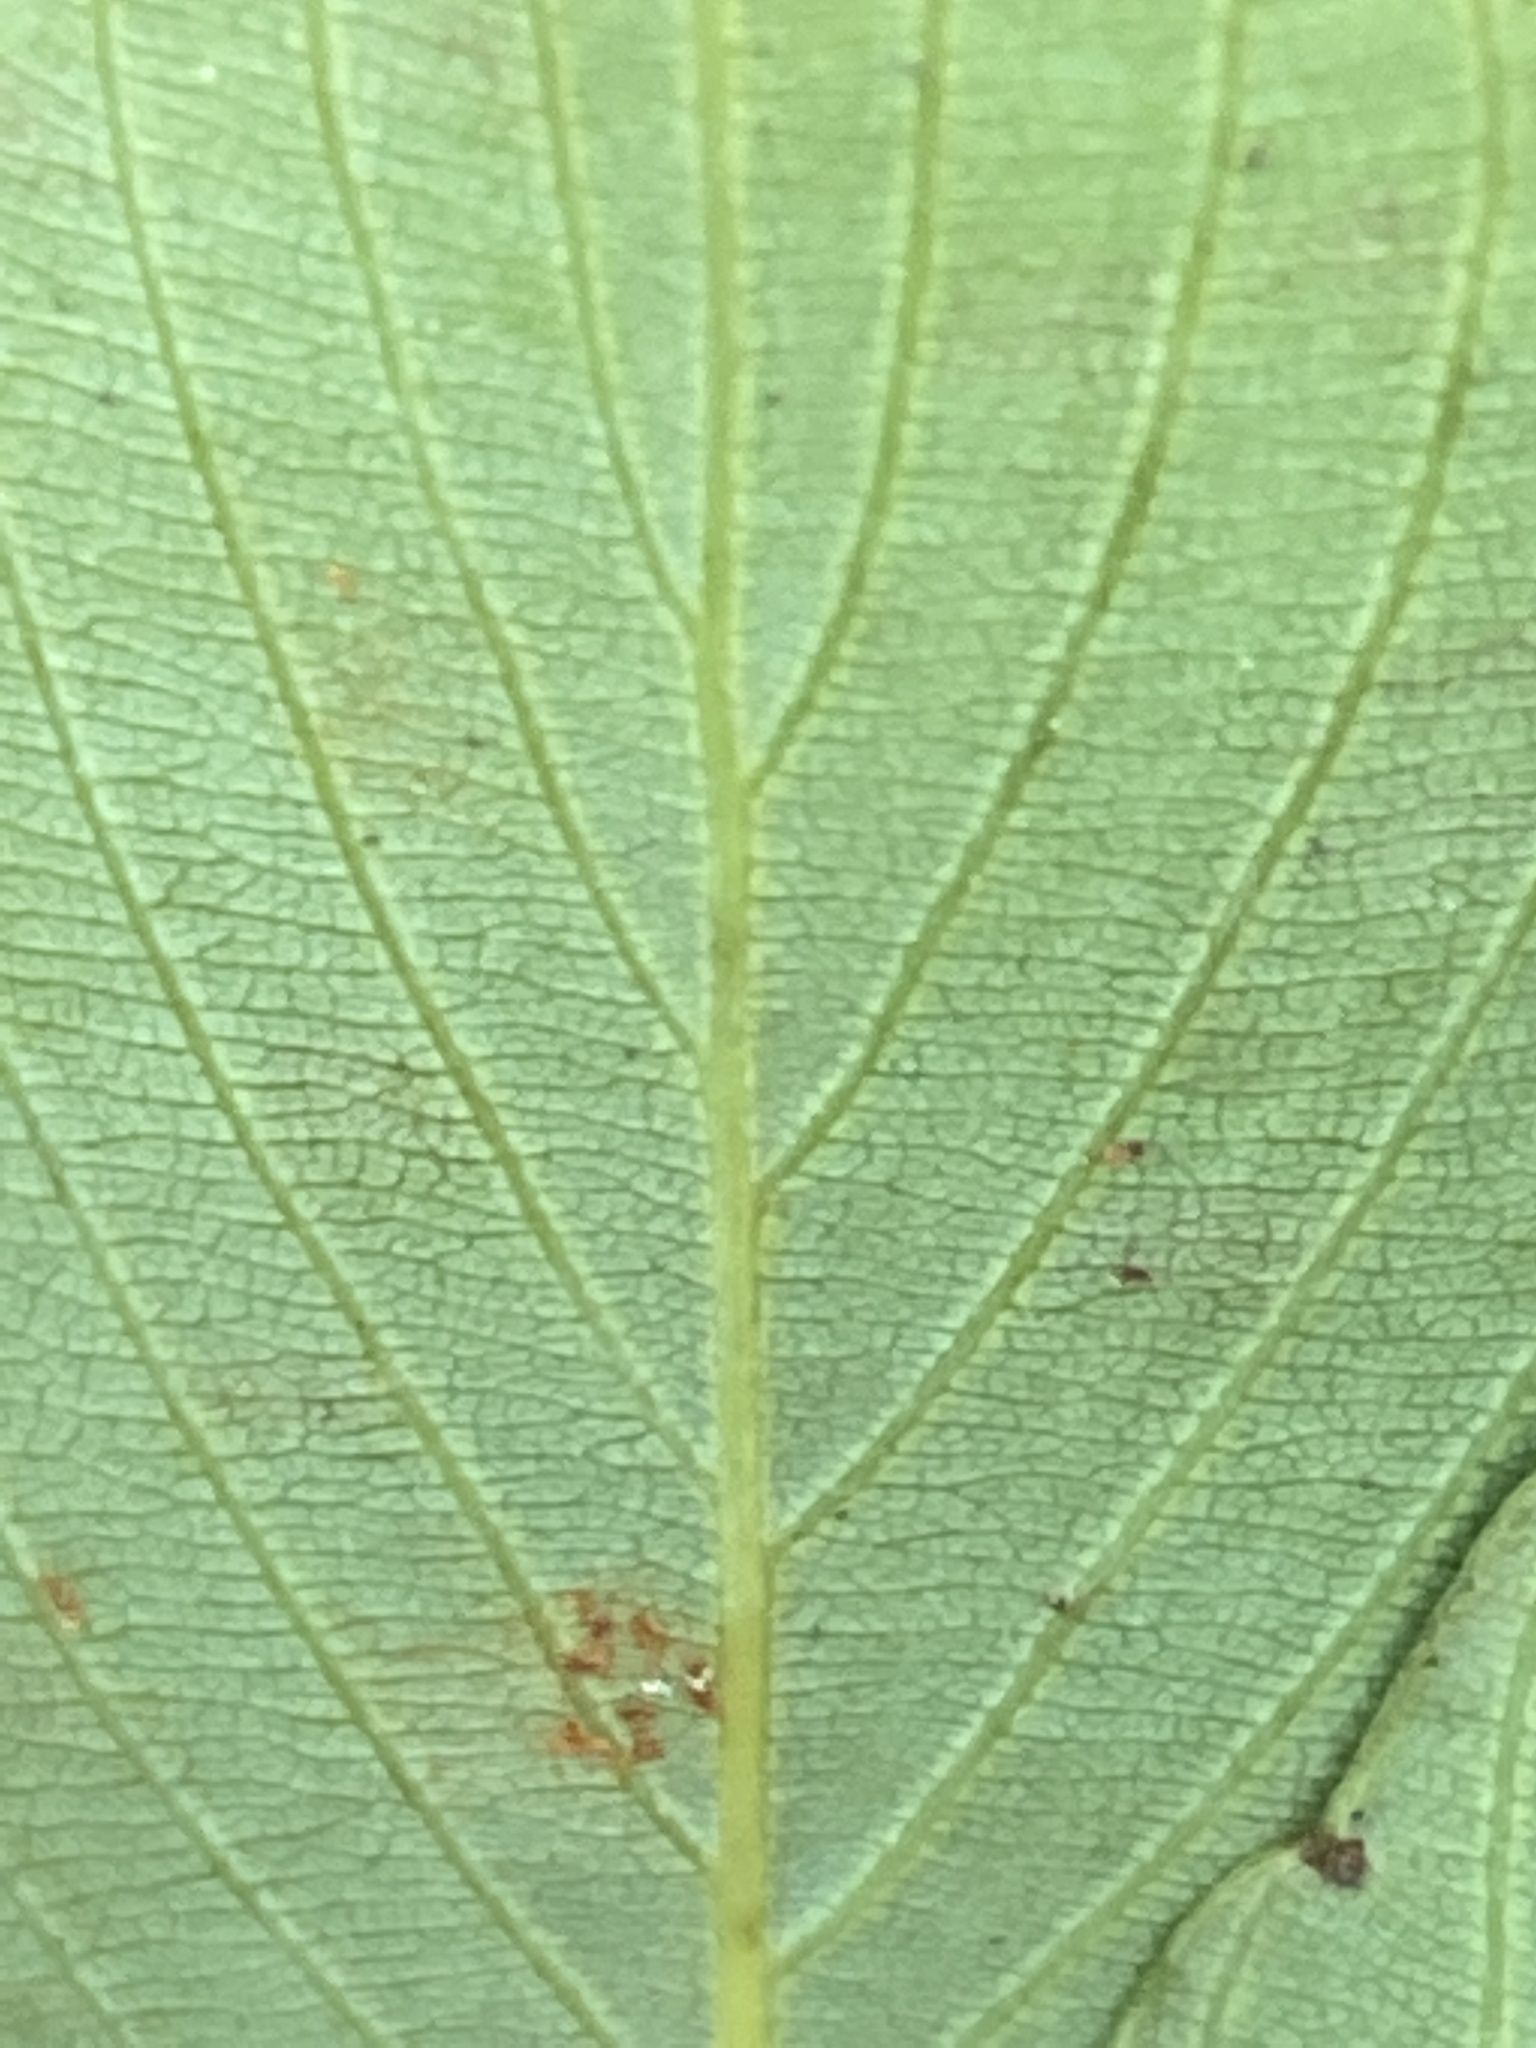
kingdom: Plantae
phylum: Tracheophyta
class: Magnoliopsida
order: Rosales
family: Rhamnaceae
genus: Berchemia
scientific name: Berchemia scandens
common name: Supplejack
